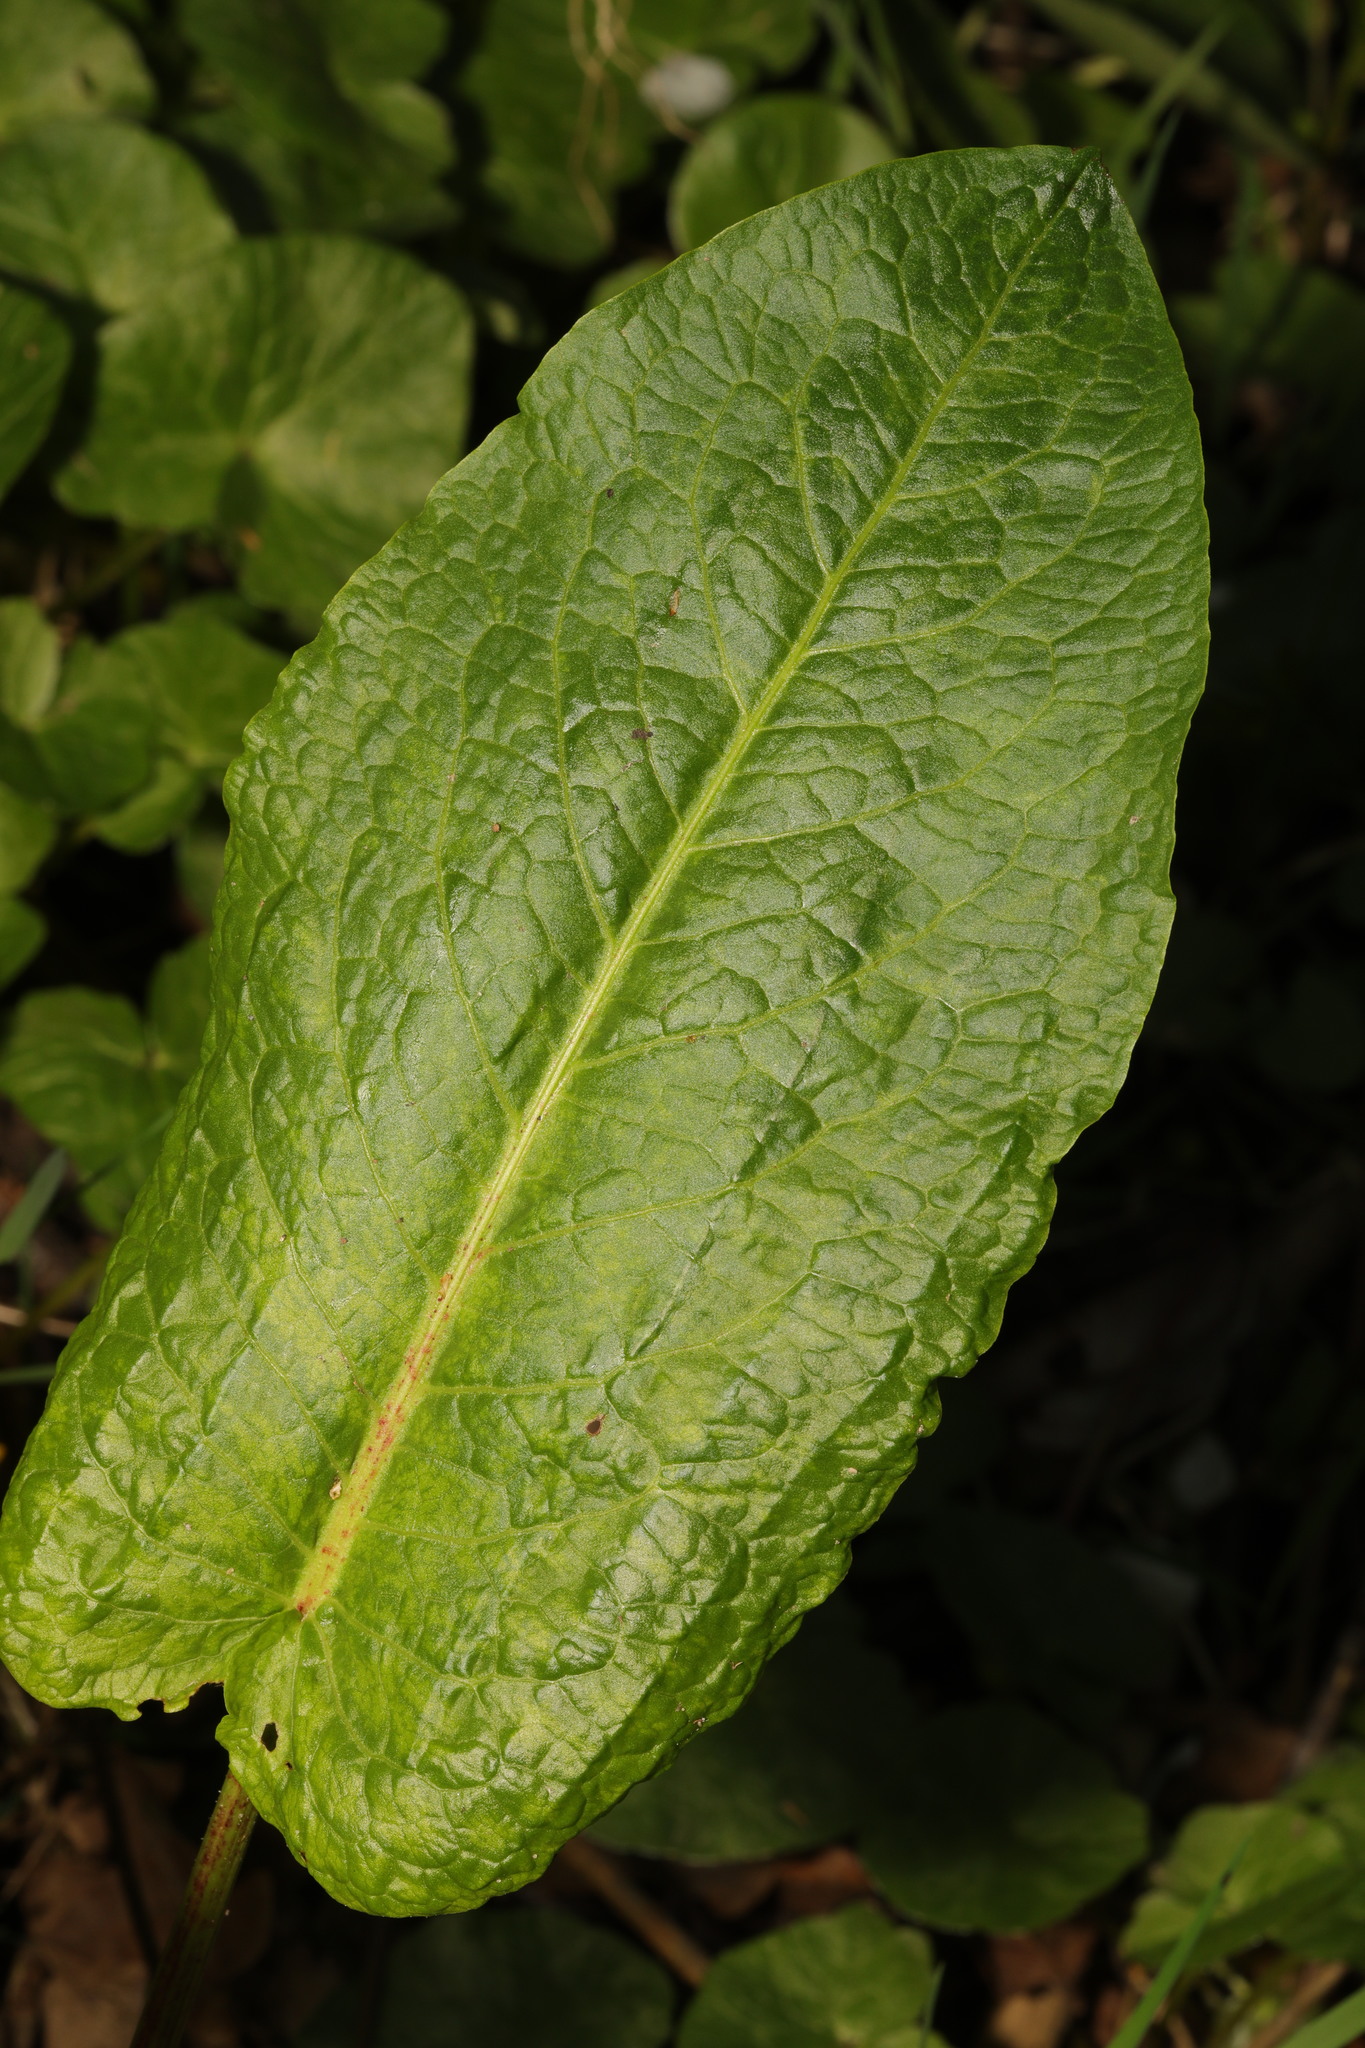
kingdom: Plantae
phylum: Tracheophyta
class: Magnoliopsida
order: Caryophyllales
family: Polygonaceae
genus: Rumex
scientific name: Rumex obtusifolius
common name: Bitter dock
